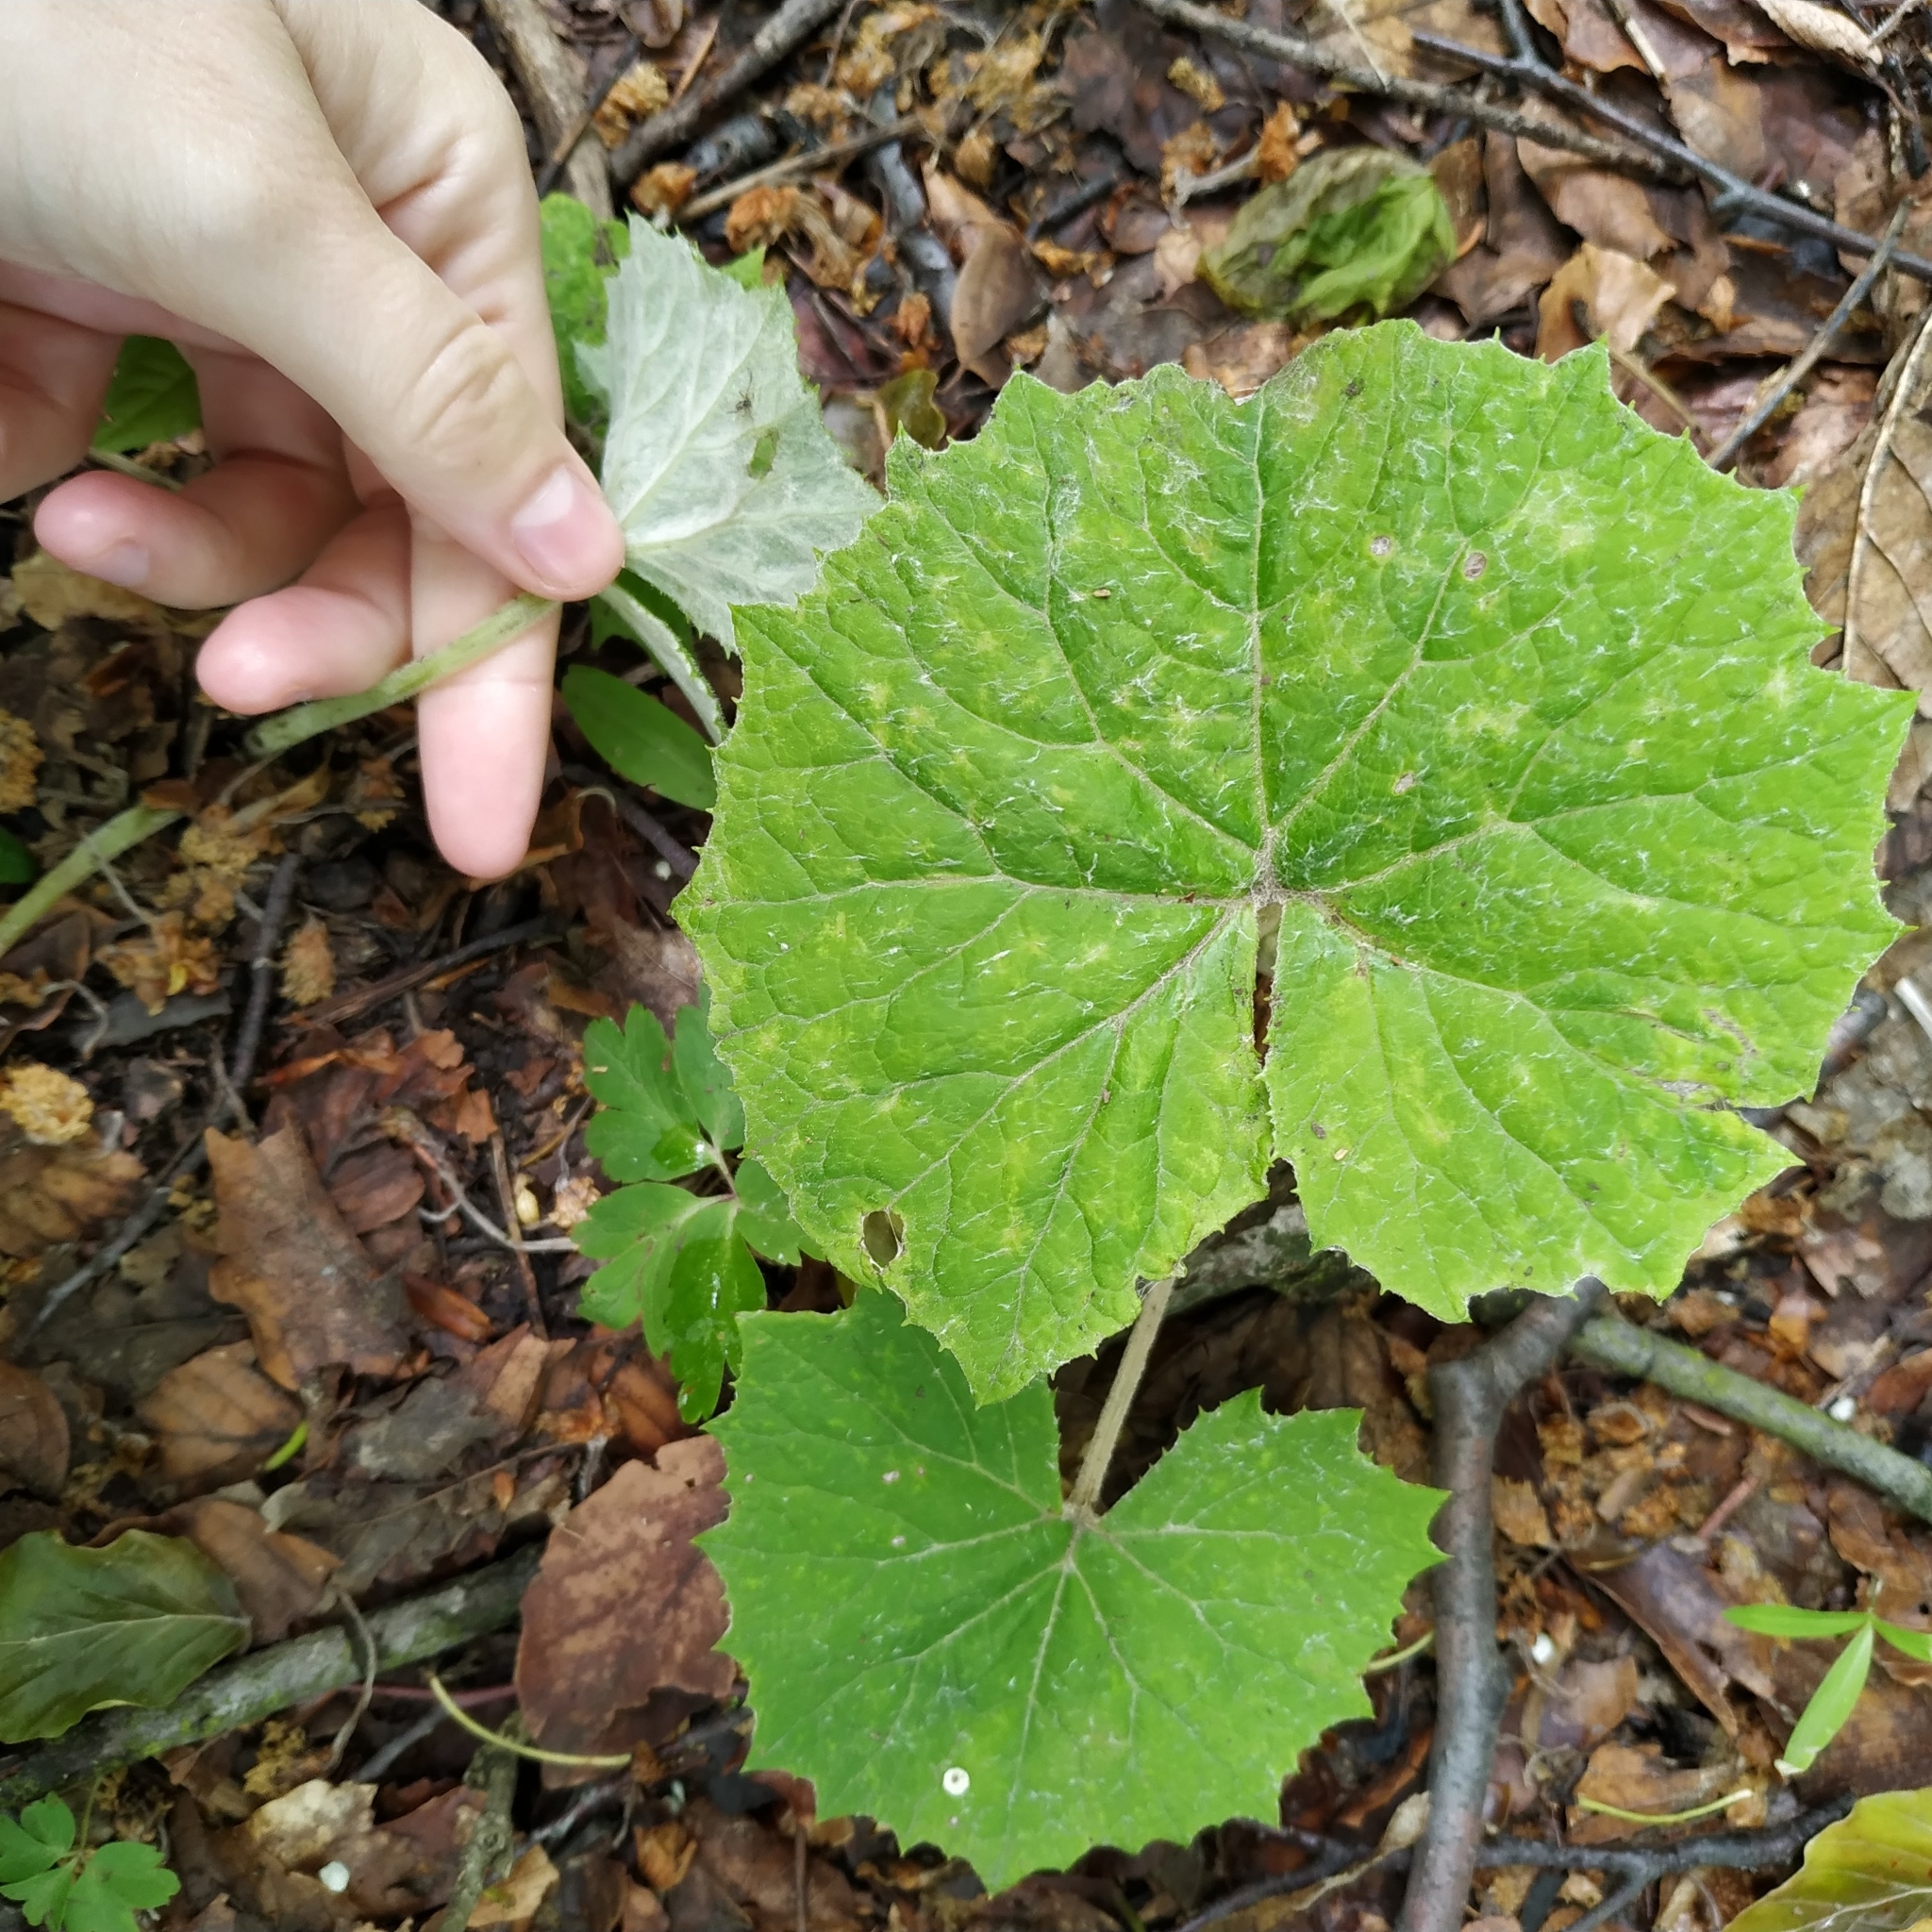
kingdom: Plantae
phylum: Tracheophyta
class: Magnoliopsida
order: Asterales
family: Asteraceae
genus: Petasites
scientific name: Petasites albus
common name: White butterbur
